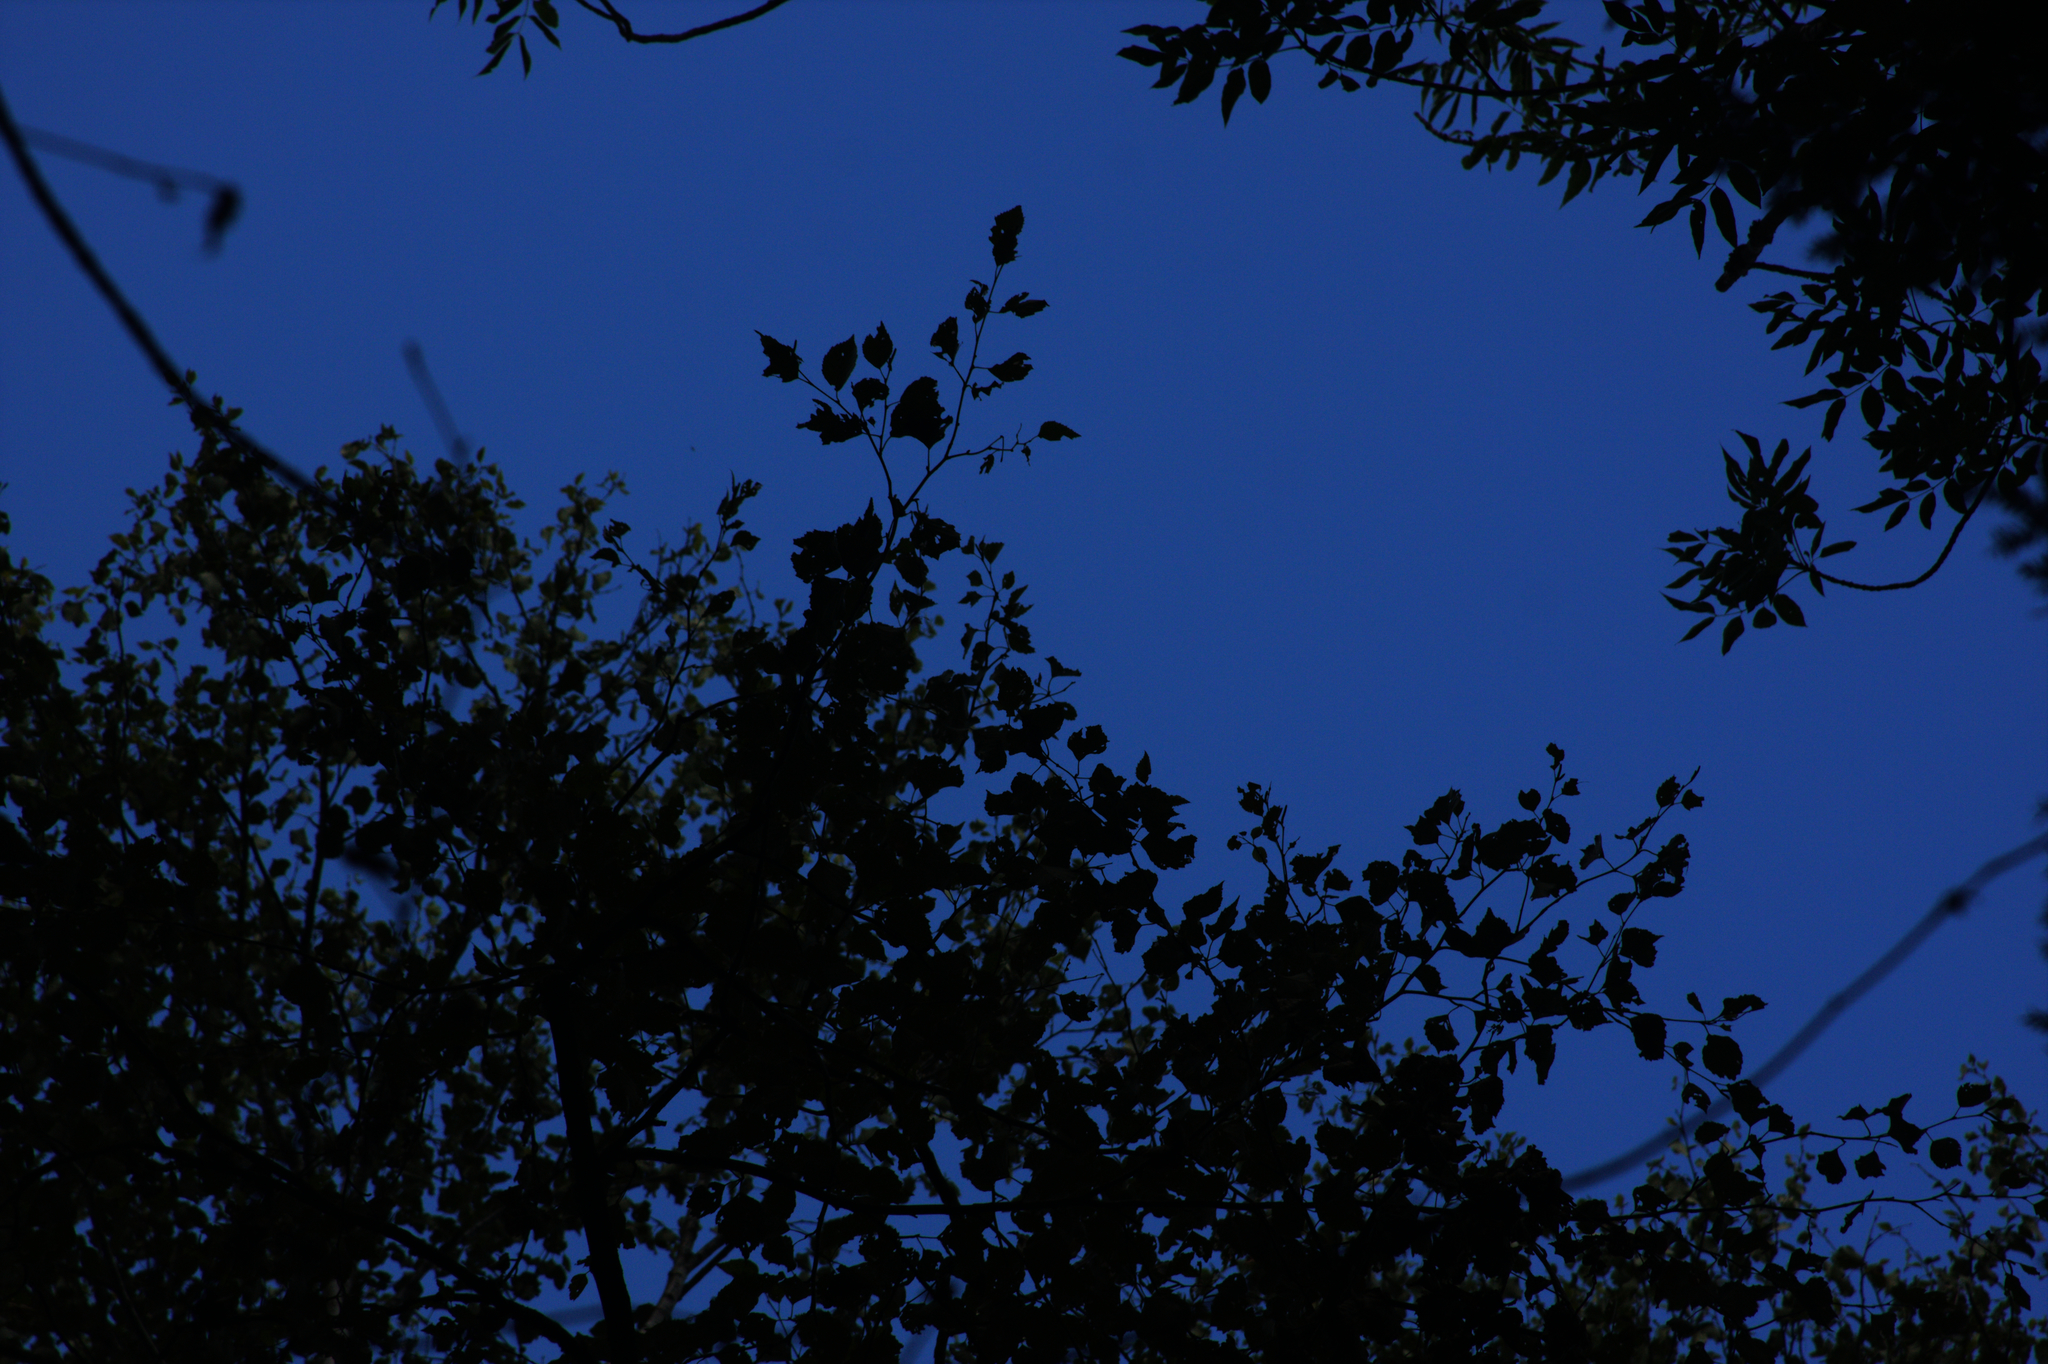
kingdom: Plantae
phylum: Tracheophyta
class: Magnoliopsida
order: Fagales
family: Betulaceae
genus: Betula
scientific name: Betula papyrifera
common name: Paper birch
